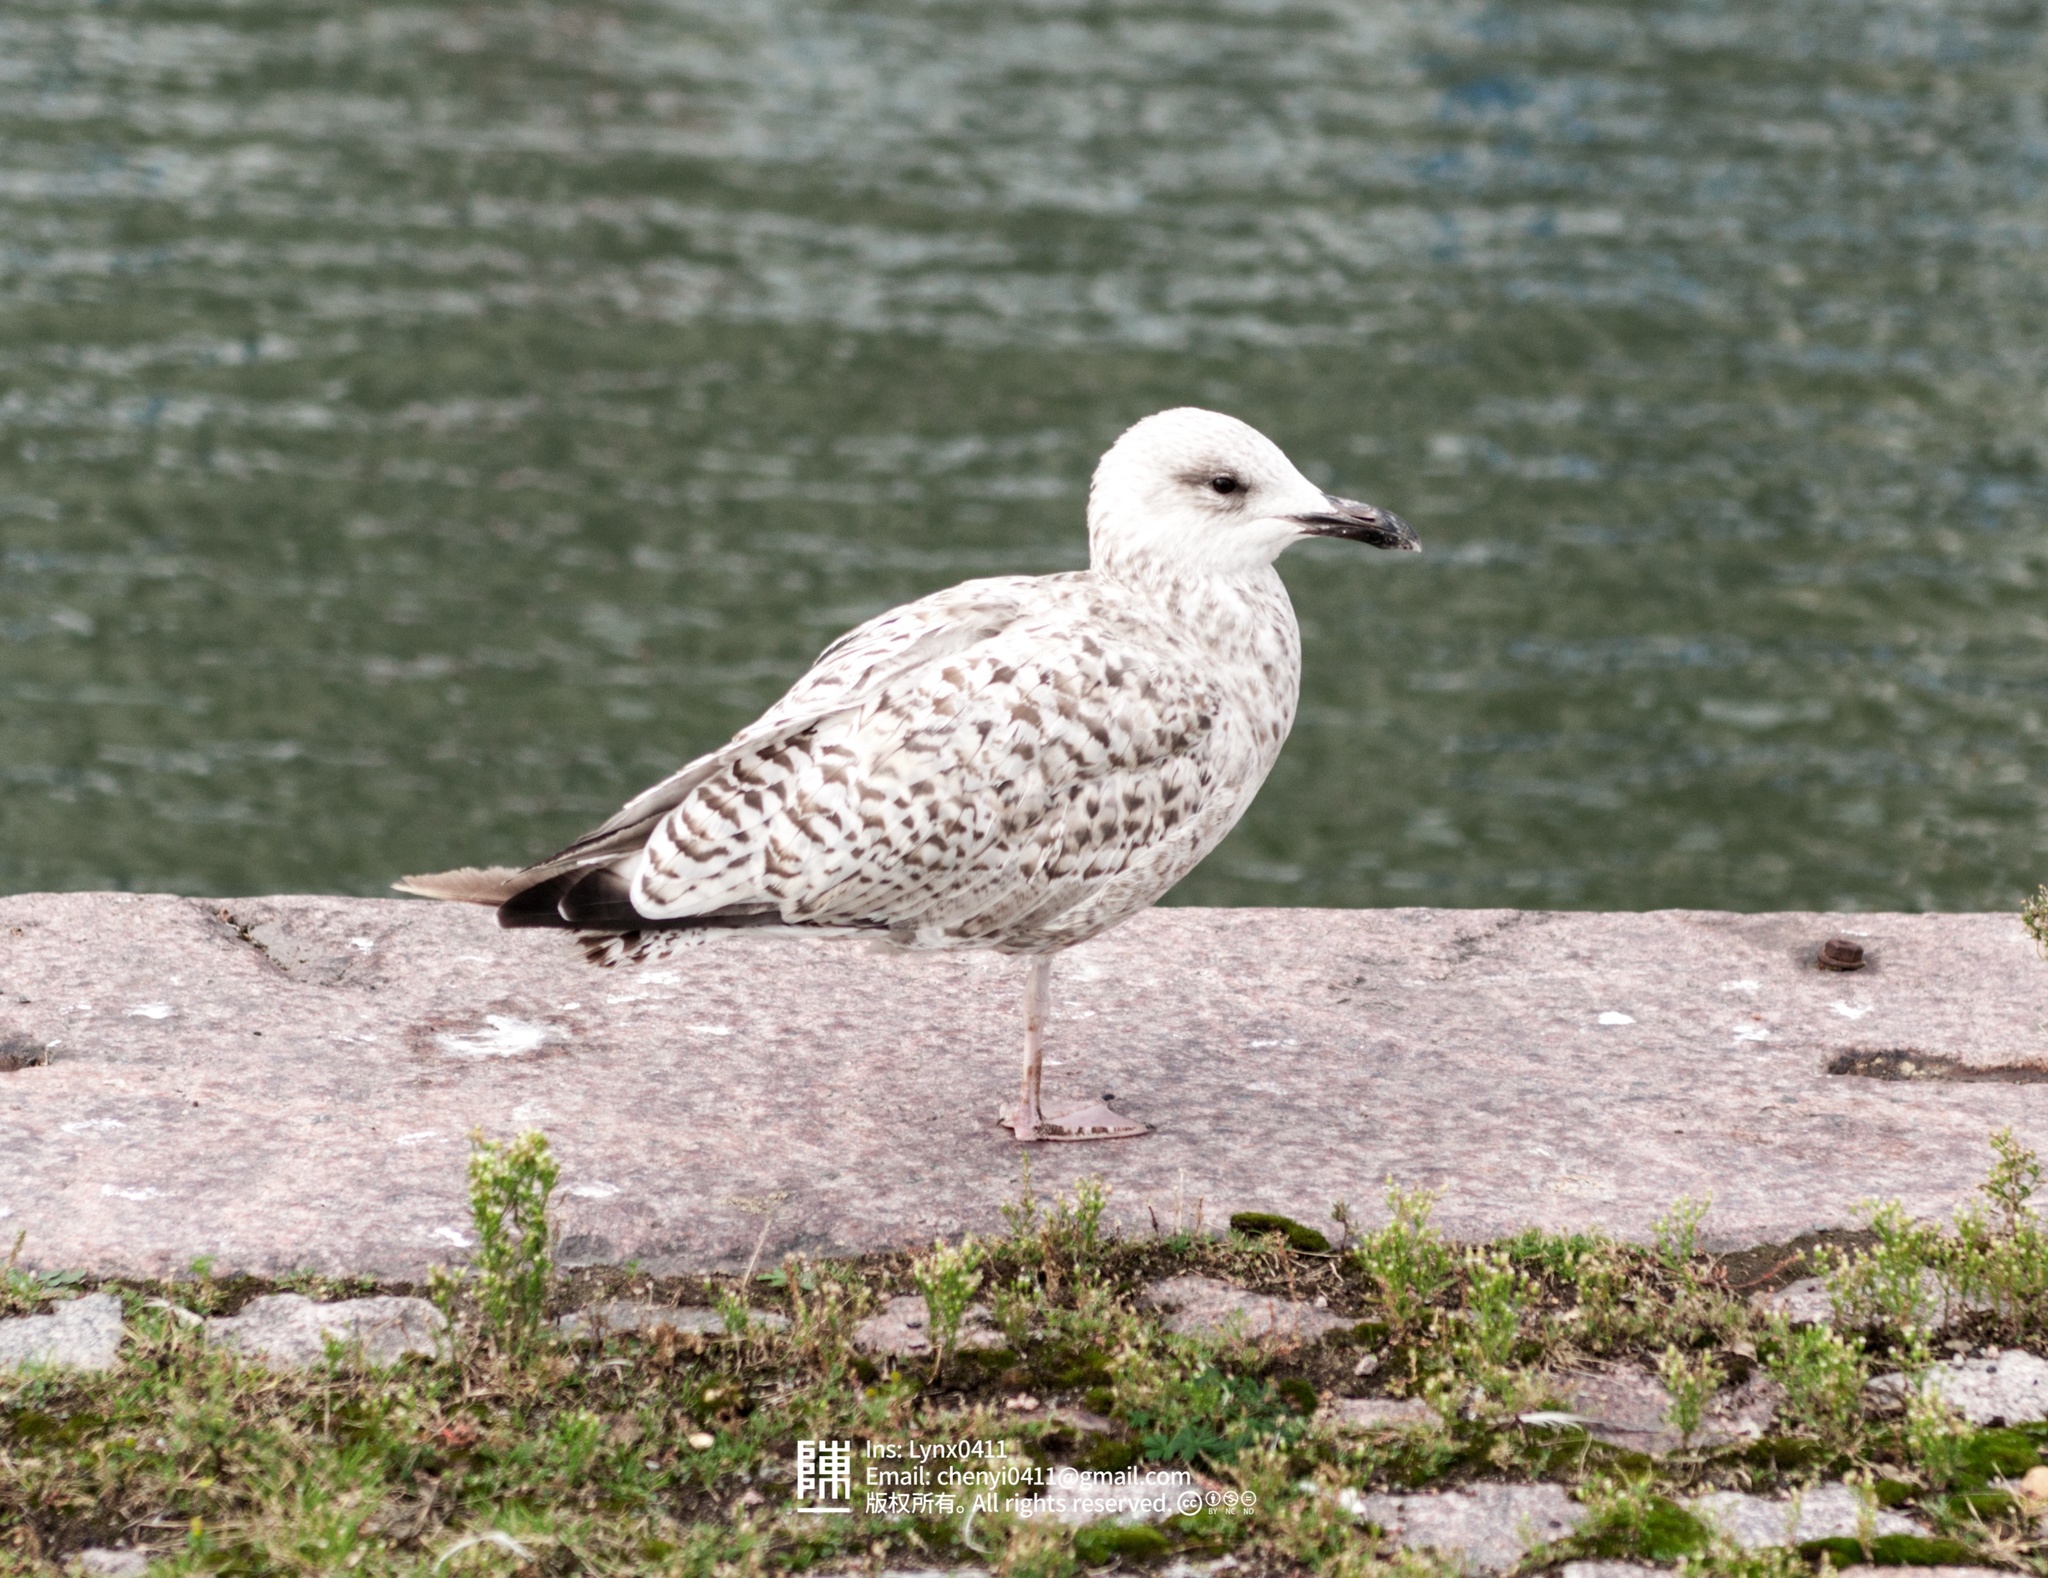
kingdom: Animalia
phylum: Chordata
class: Aves
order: Charadriiformes
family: Laridae
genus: Larus
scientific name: Larus argentatus
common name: Herring gull
